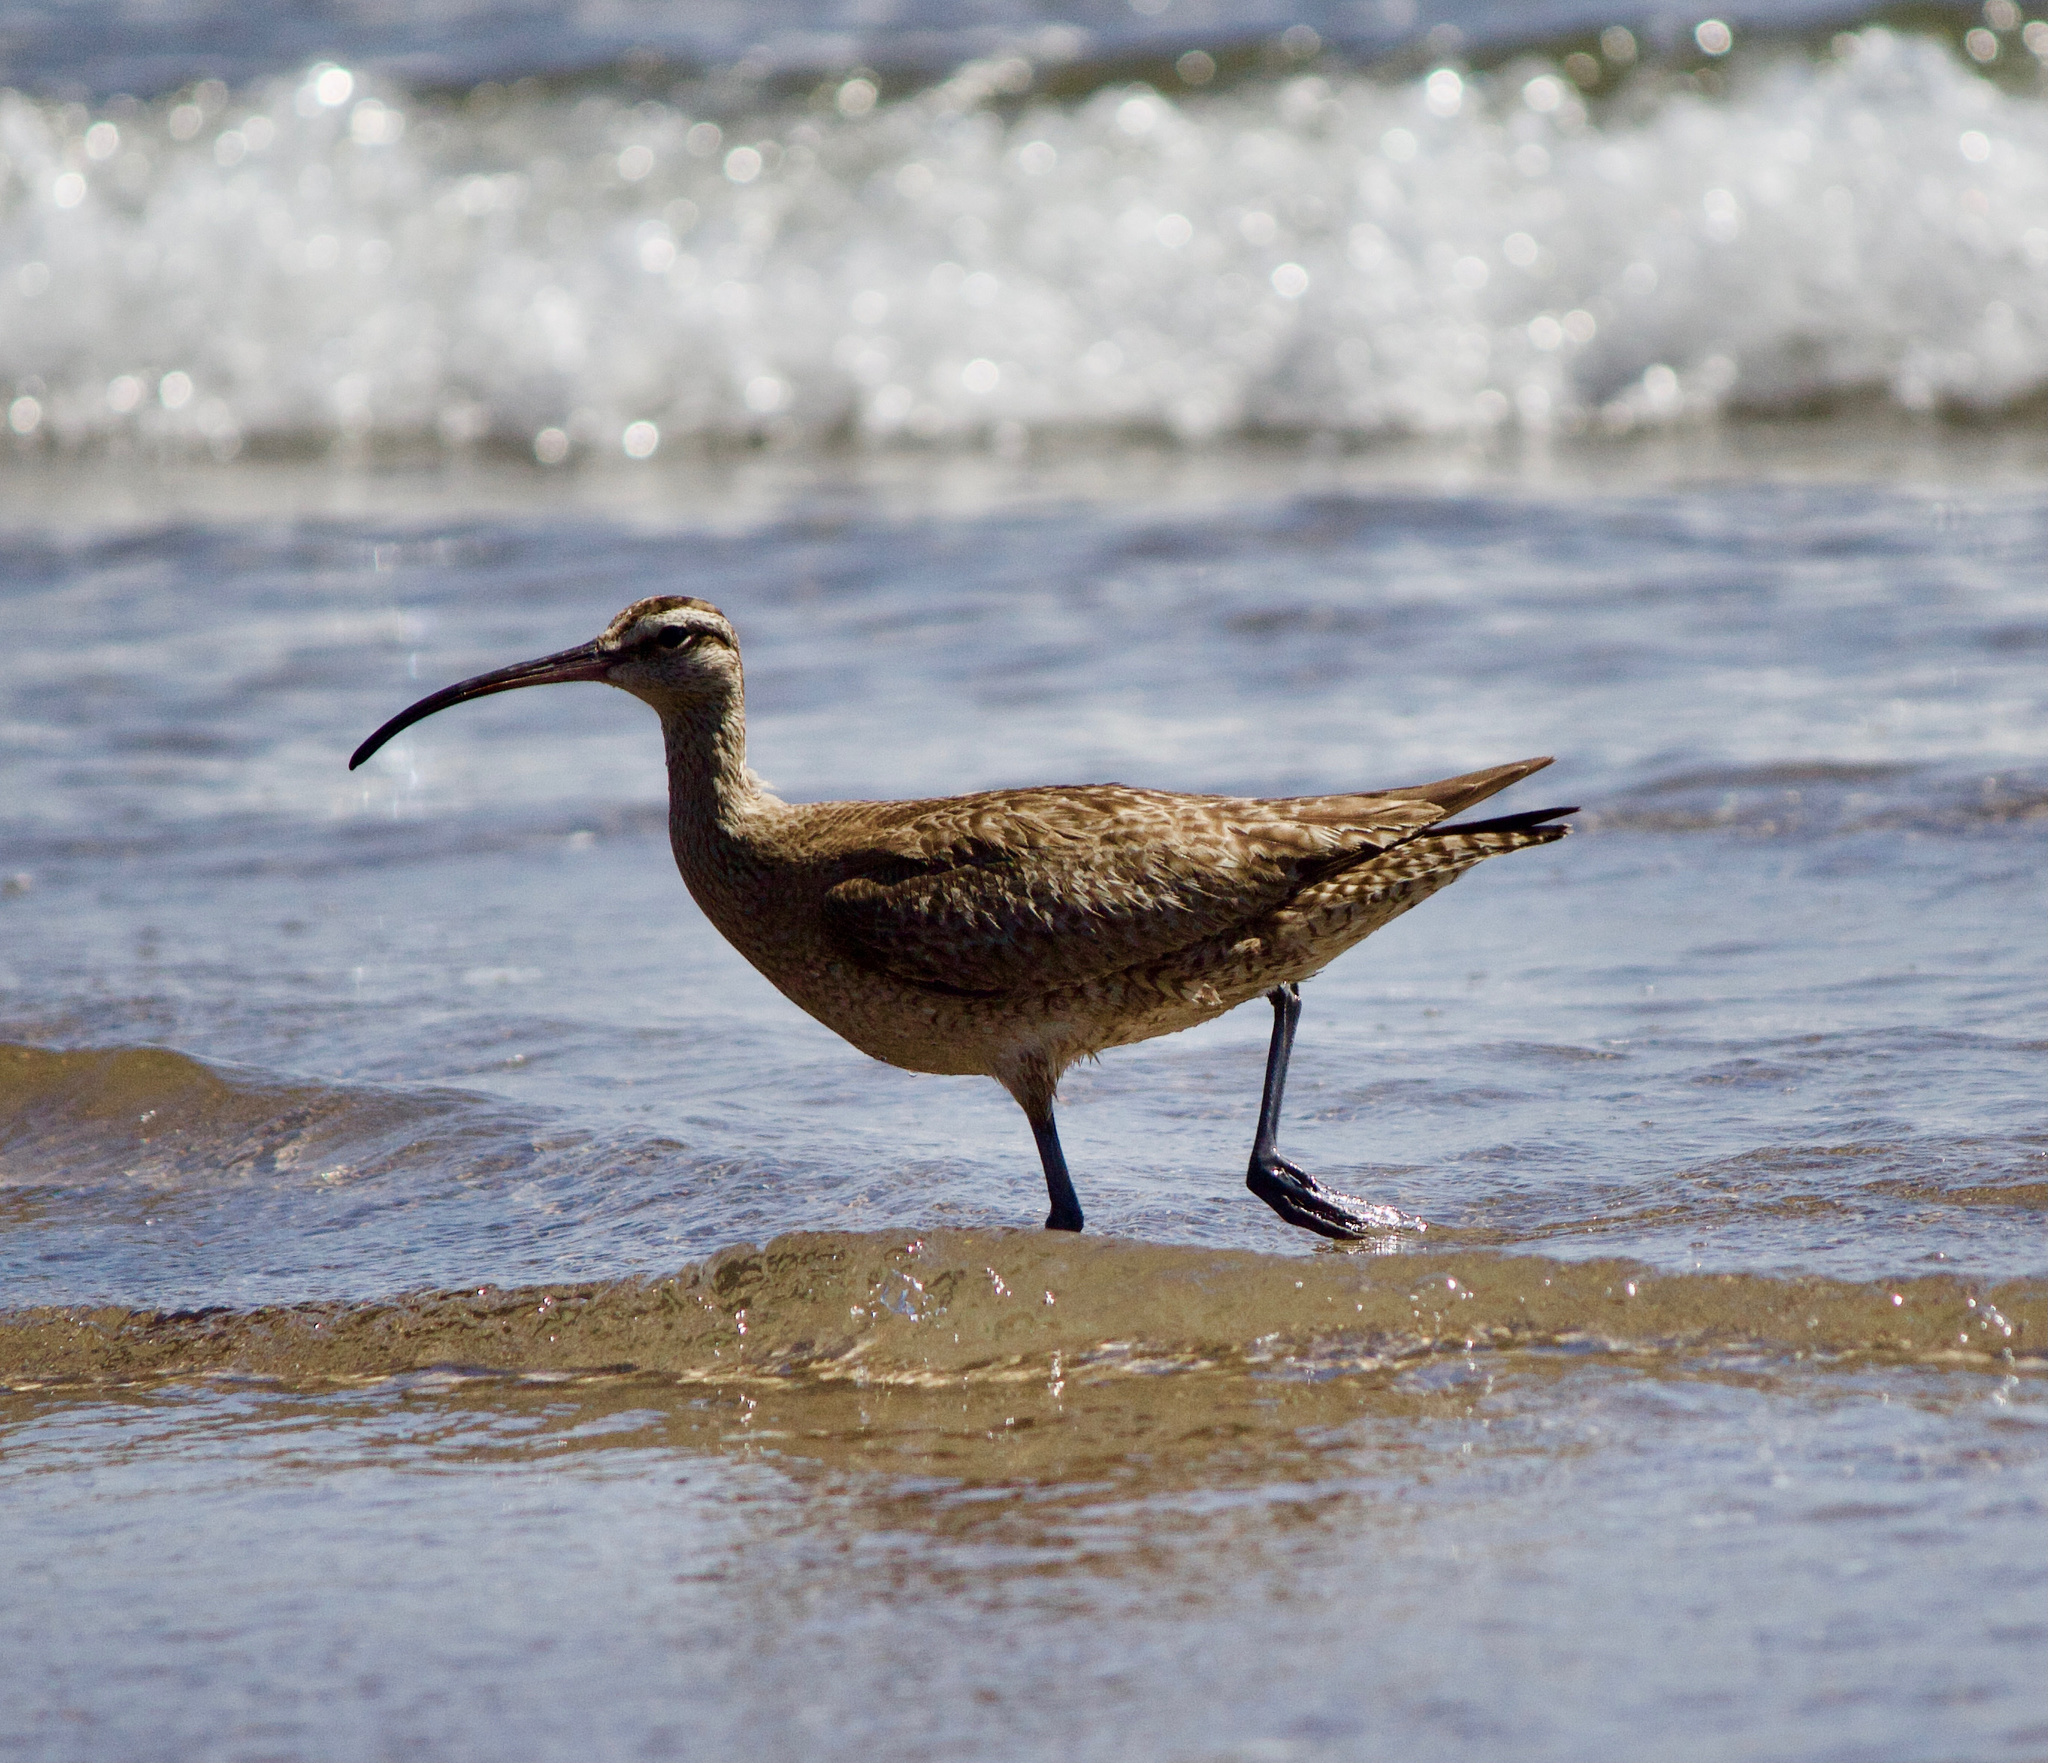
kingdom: Animalia
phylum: Chordata
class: Aves
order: Charadriiformes
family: Scolopacidae
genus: Numenius
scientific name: Numenius phaeopus
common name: Whimbrel
